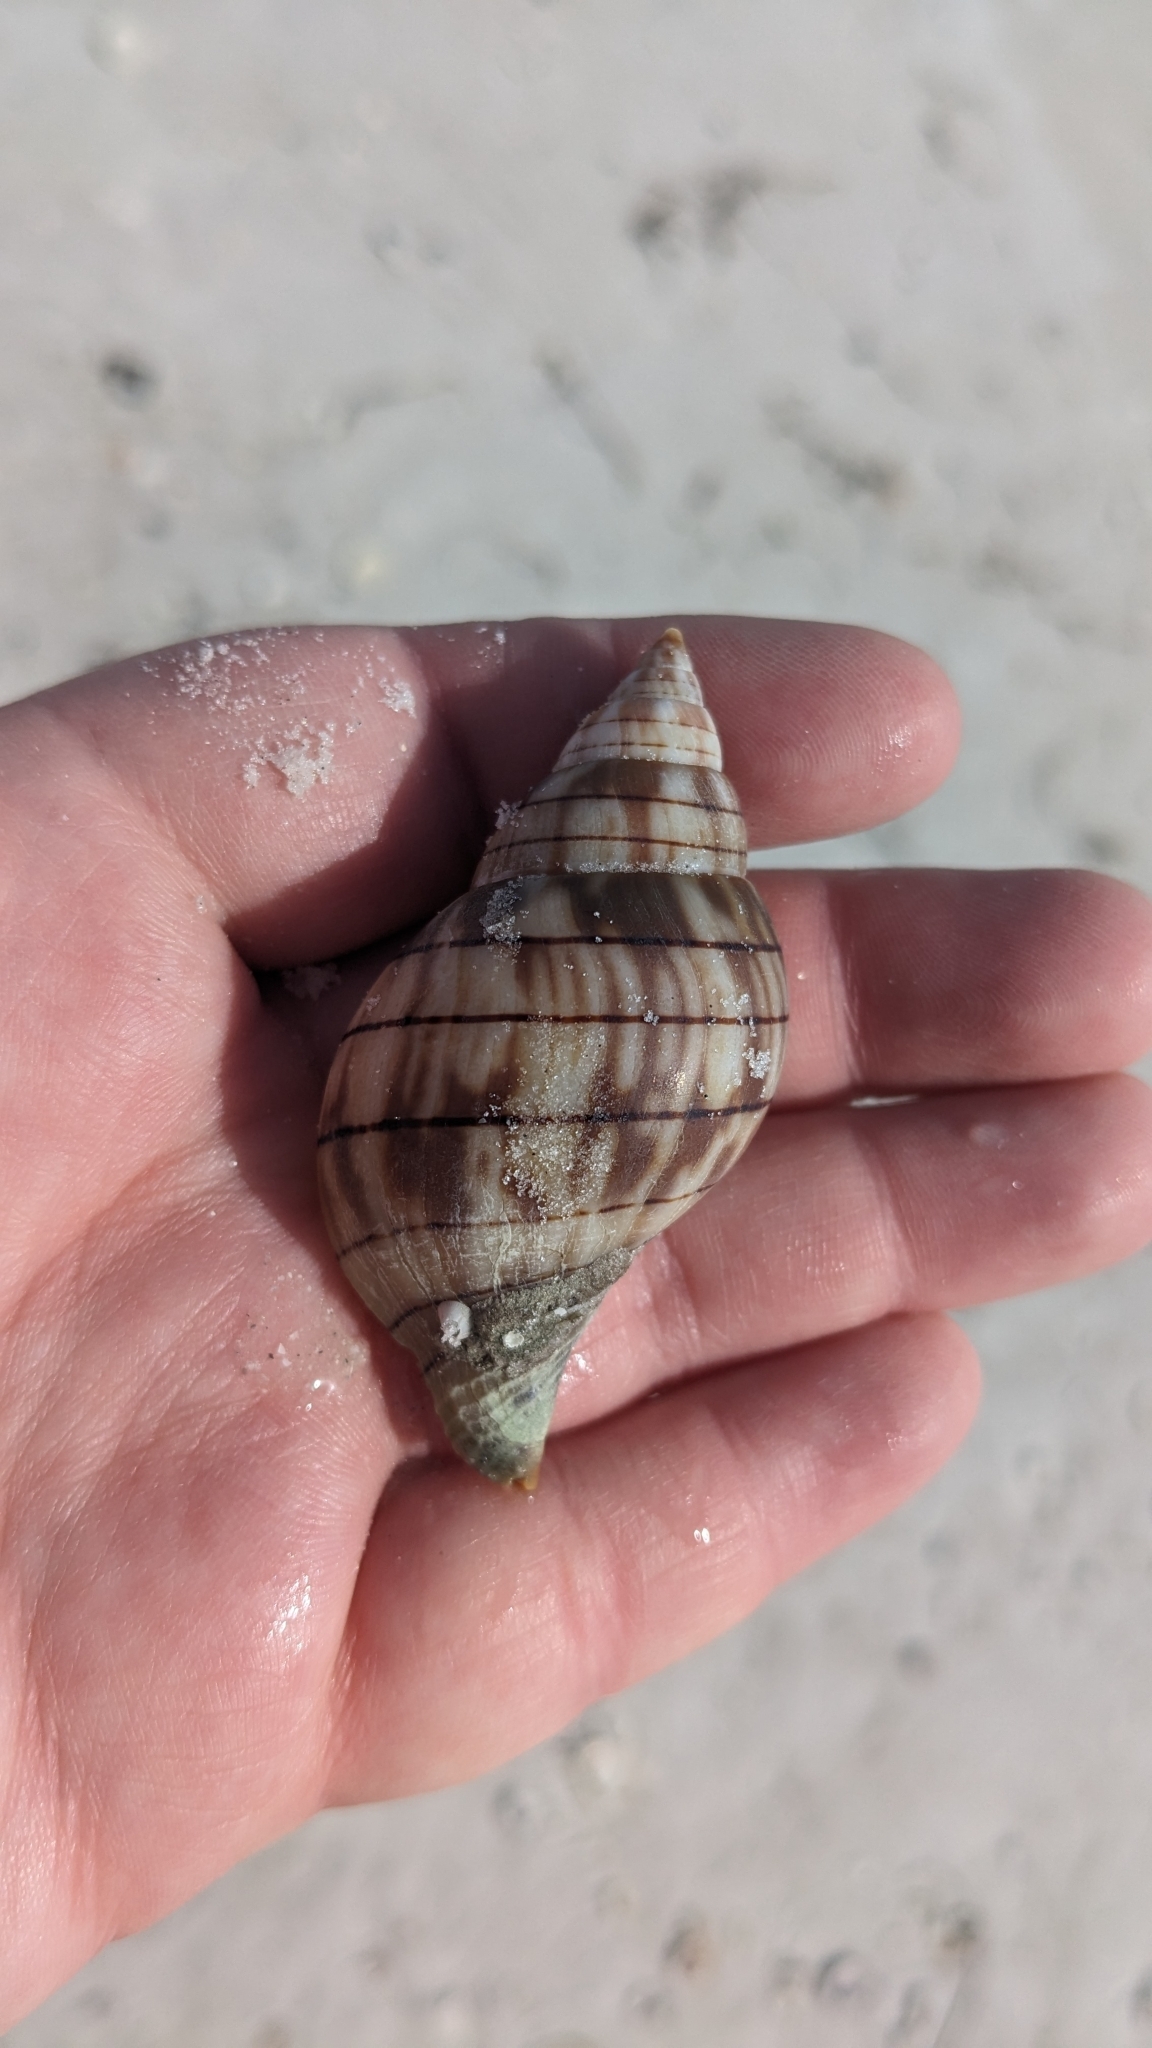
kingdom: Animalia
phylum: Mollusca
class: Gastropoda
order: Neogastropoda
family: Fasciolariidae
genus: Cinctura
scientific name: Cinctura hunteria
